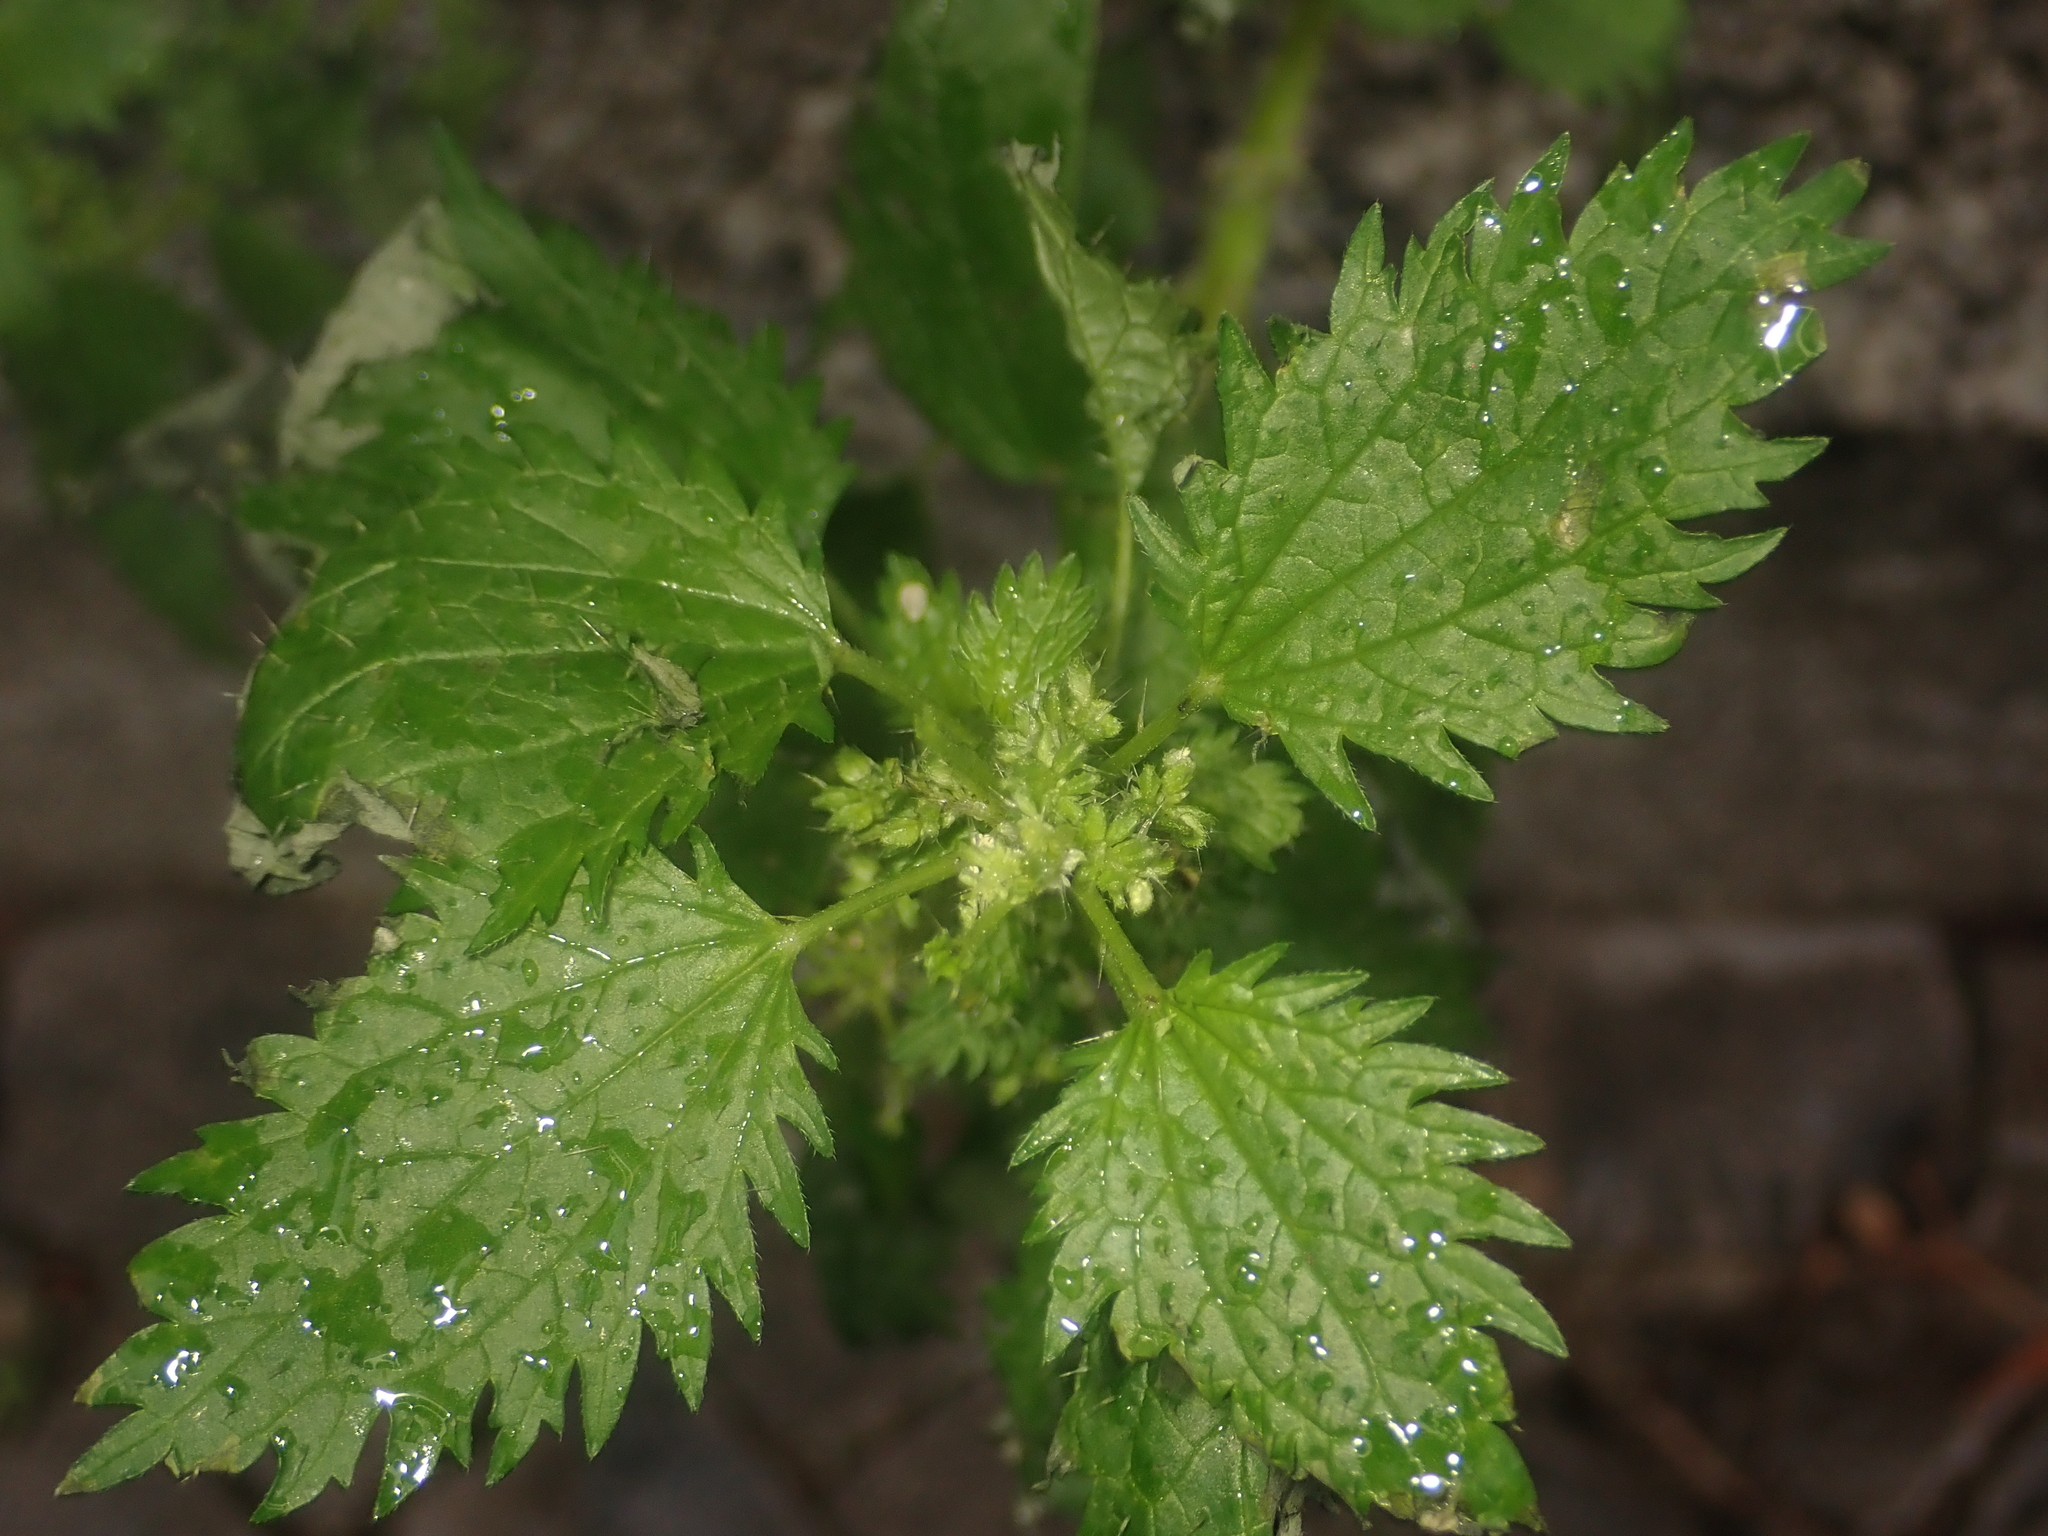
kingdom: Plantae
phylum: Tracheophyta
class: Magnoliopsida
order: Rosales
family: Urticaceae
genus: Urtica
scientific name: Urtica urens
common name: Dwarf nettle
